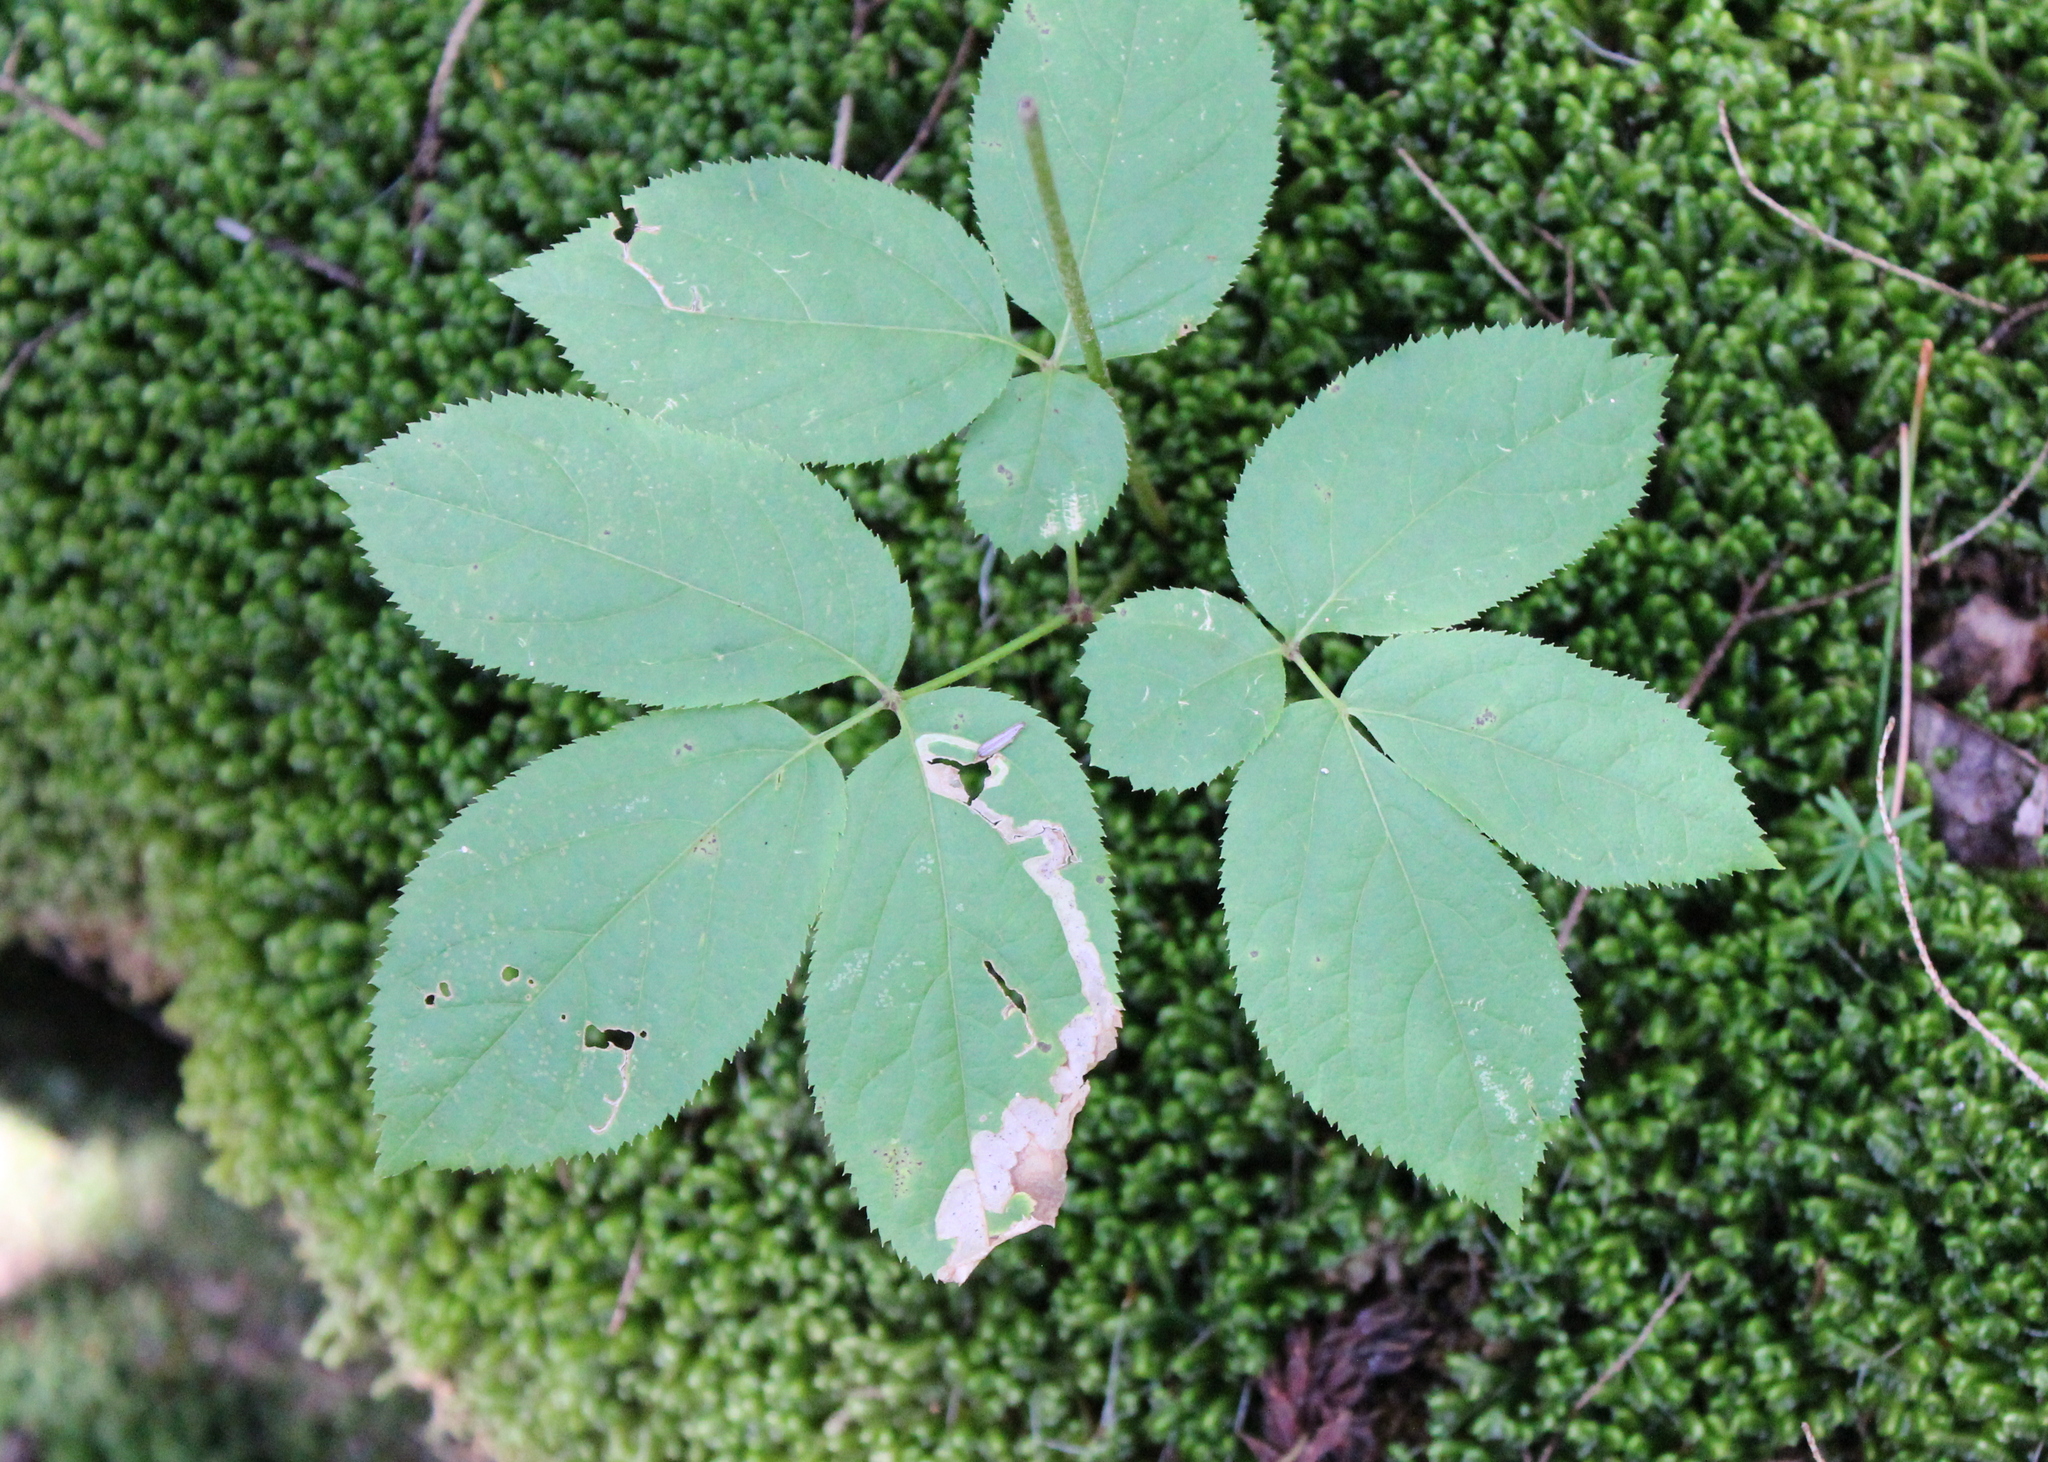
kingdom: Plantae
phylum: Tracheophyta
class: Magnoliopsida
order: Apiales
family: Araliaceae
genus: Aralia
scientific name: Aralia nudicaulis
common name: Wild sarsaparilla
